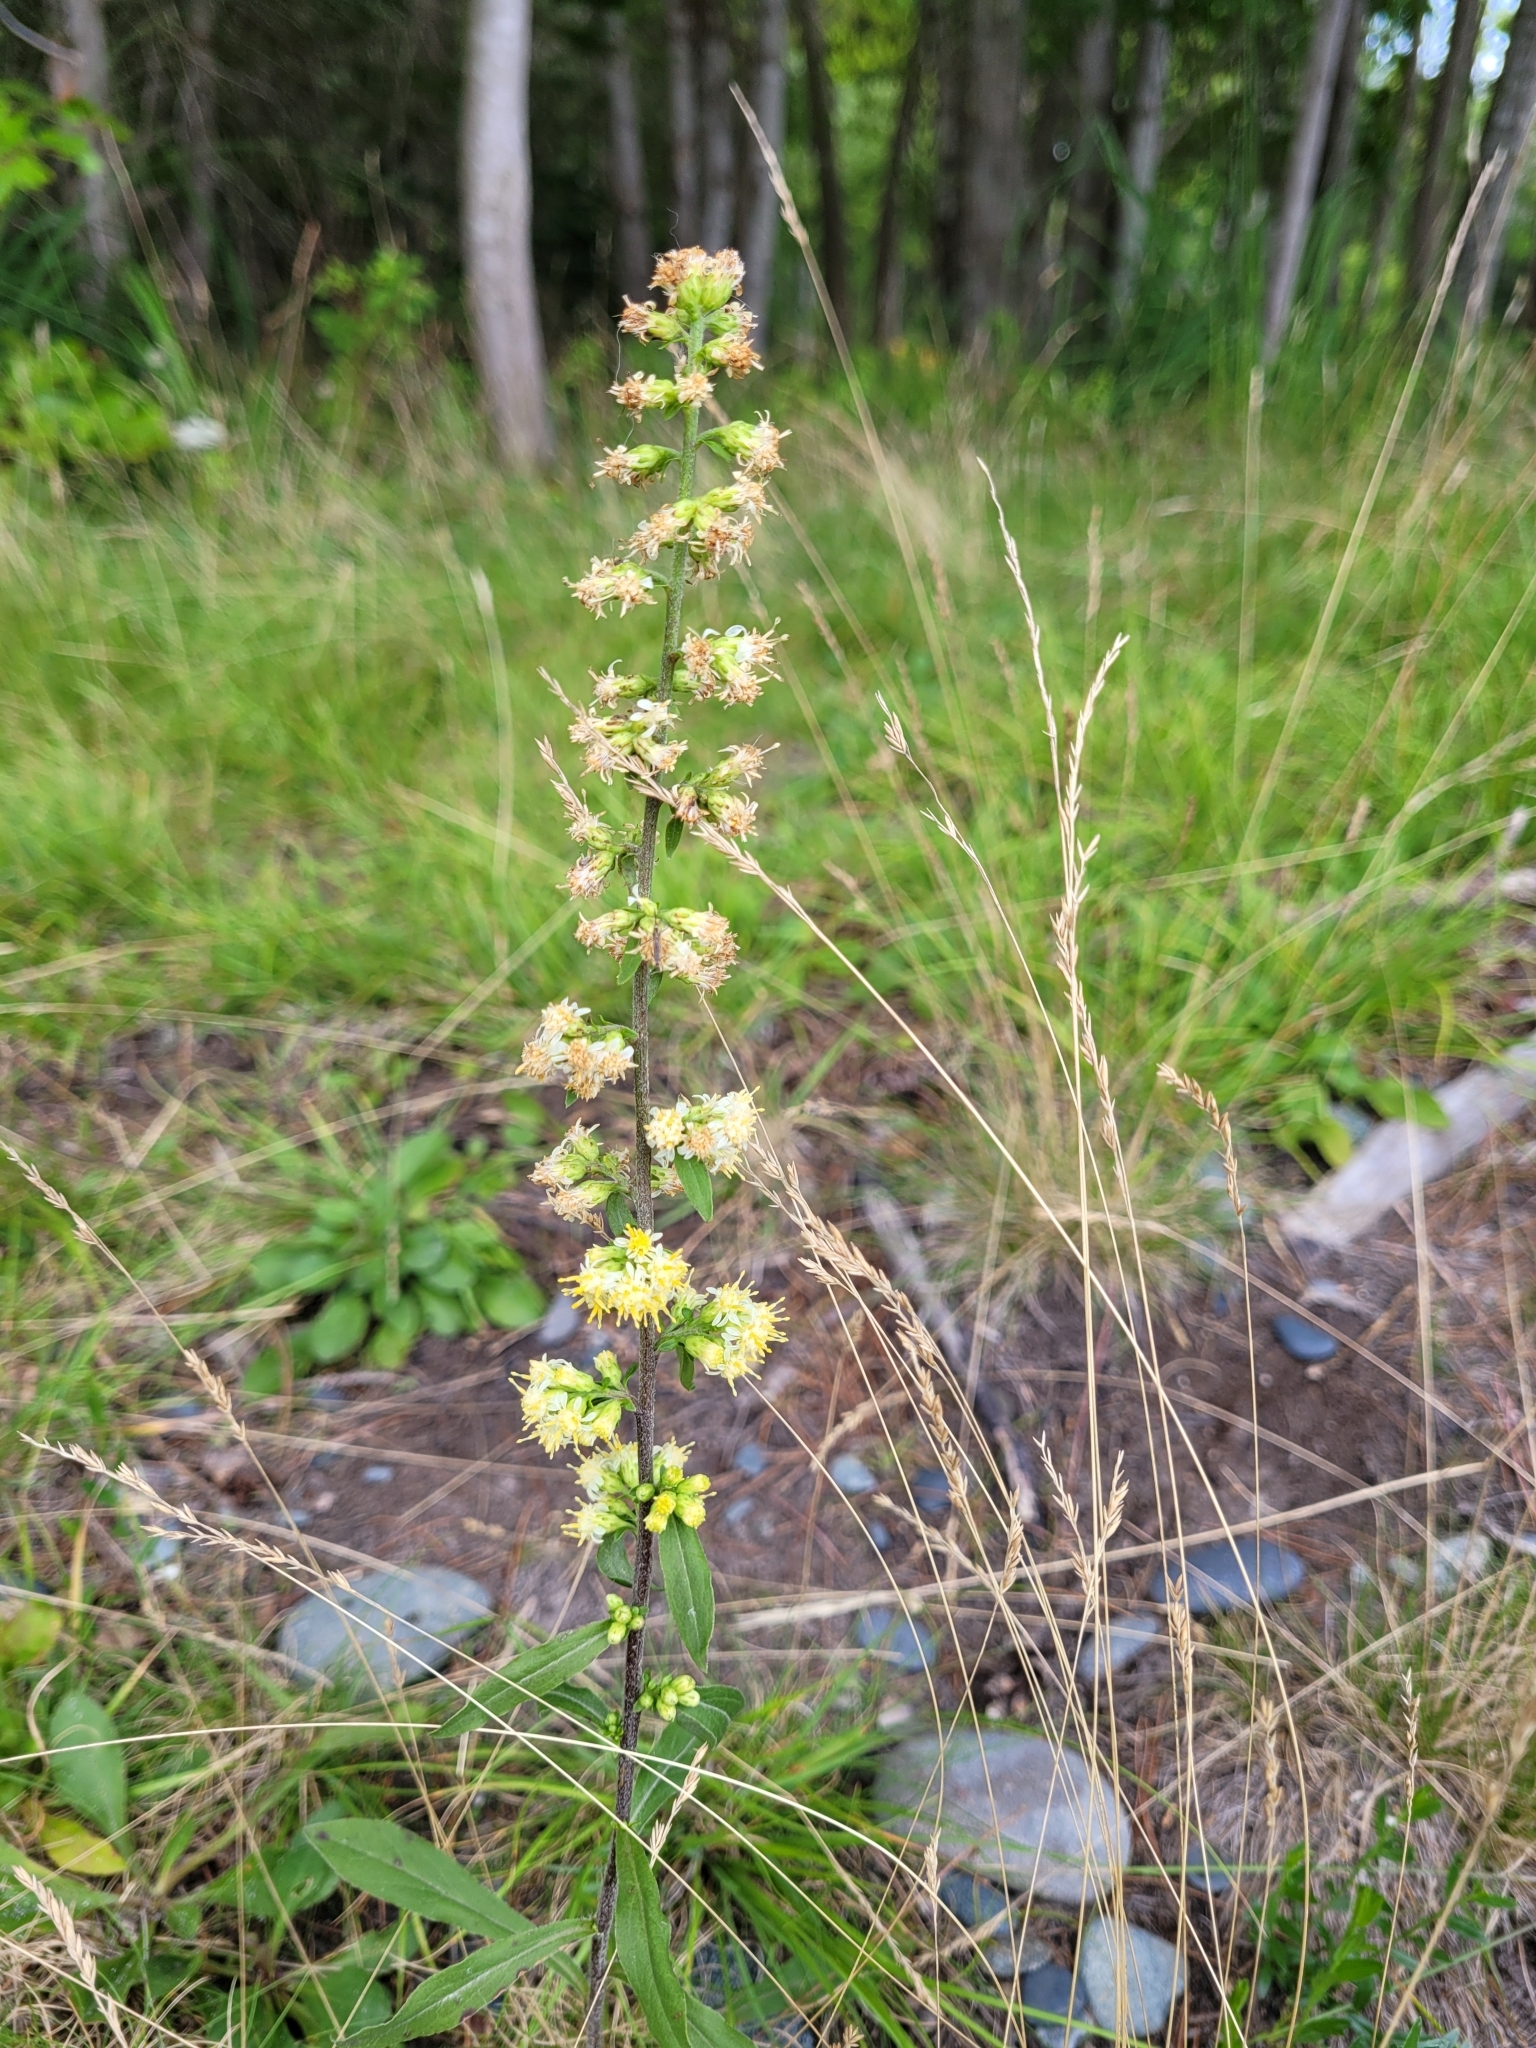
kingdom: Plantae
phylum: Tracheophyta
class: Magnoliopsida
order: Asterales
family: Asteraceae
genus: Solidago
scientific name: Solidago bicolor
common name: Silverrod
